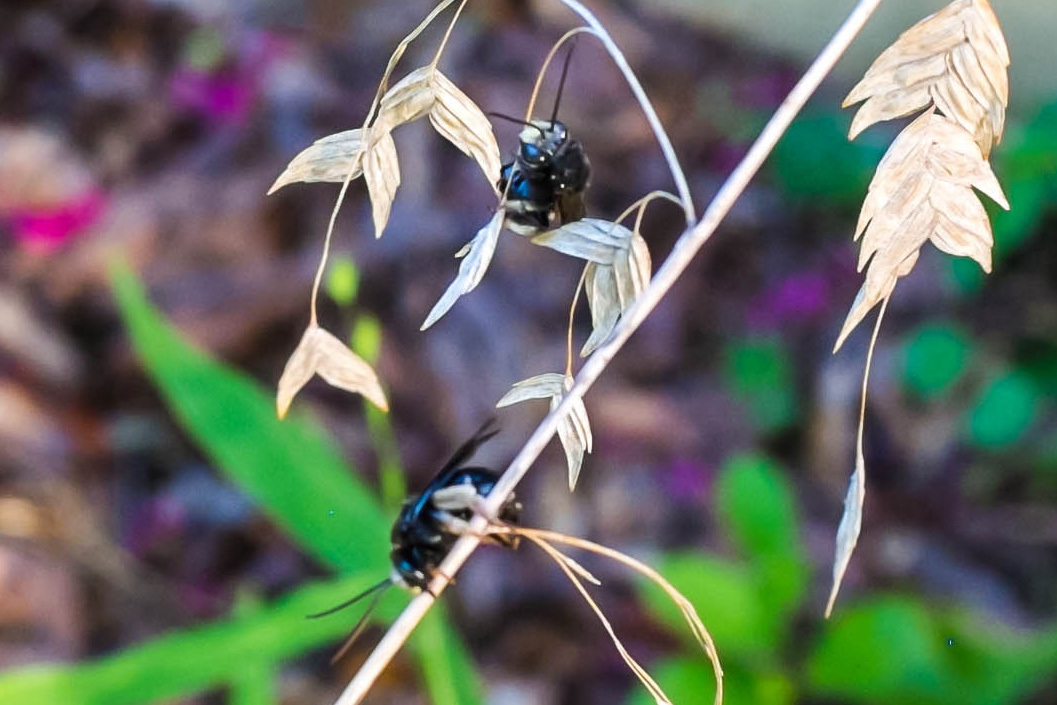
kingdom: Animalia
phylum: Arthropoda
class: Insecta
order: Hymenoptera
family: Apidae
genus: Melissodes
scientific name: Melissodes bimaculatus
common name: Two-spotted long-horned bee
